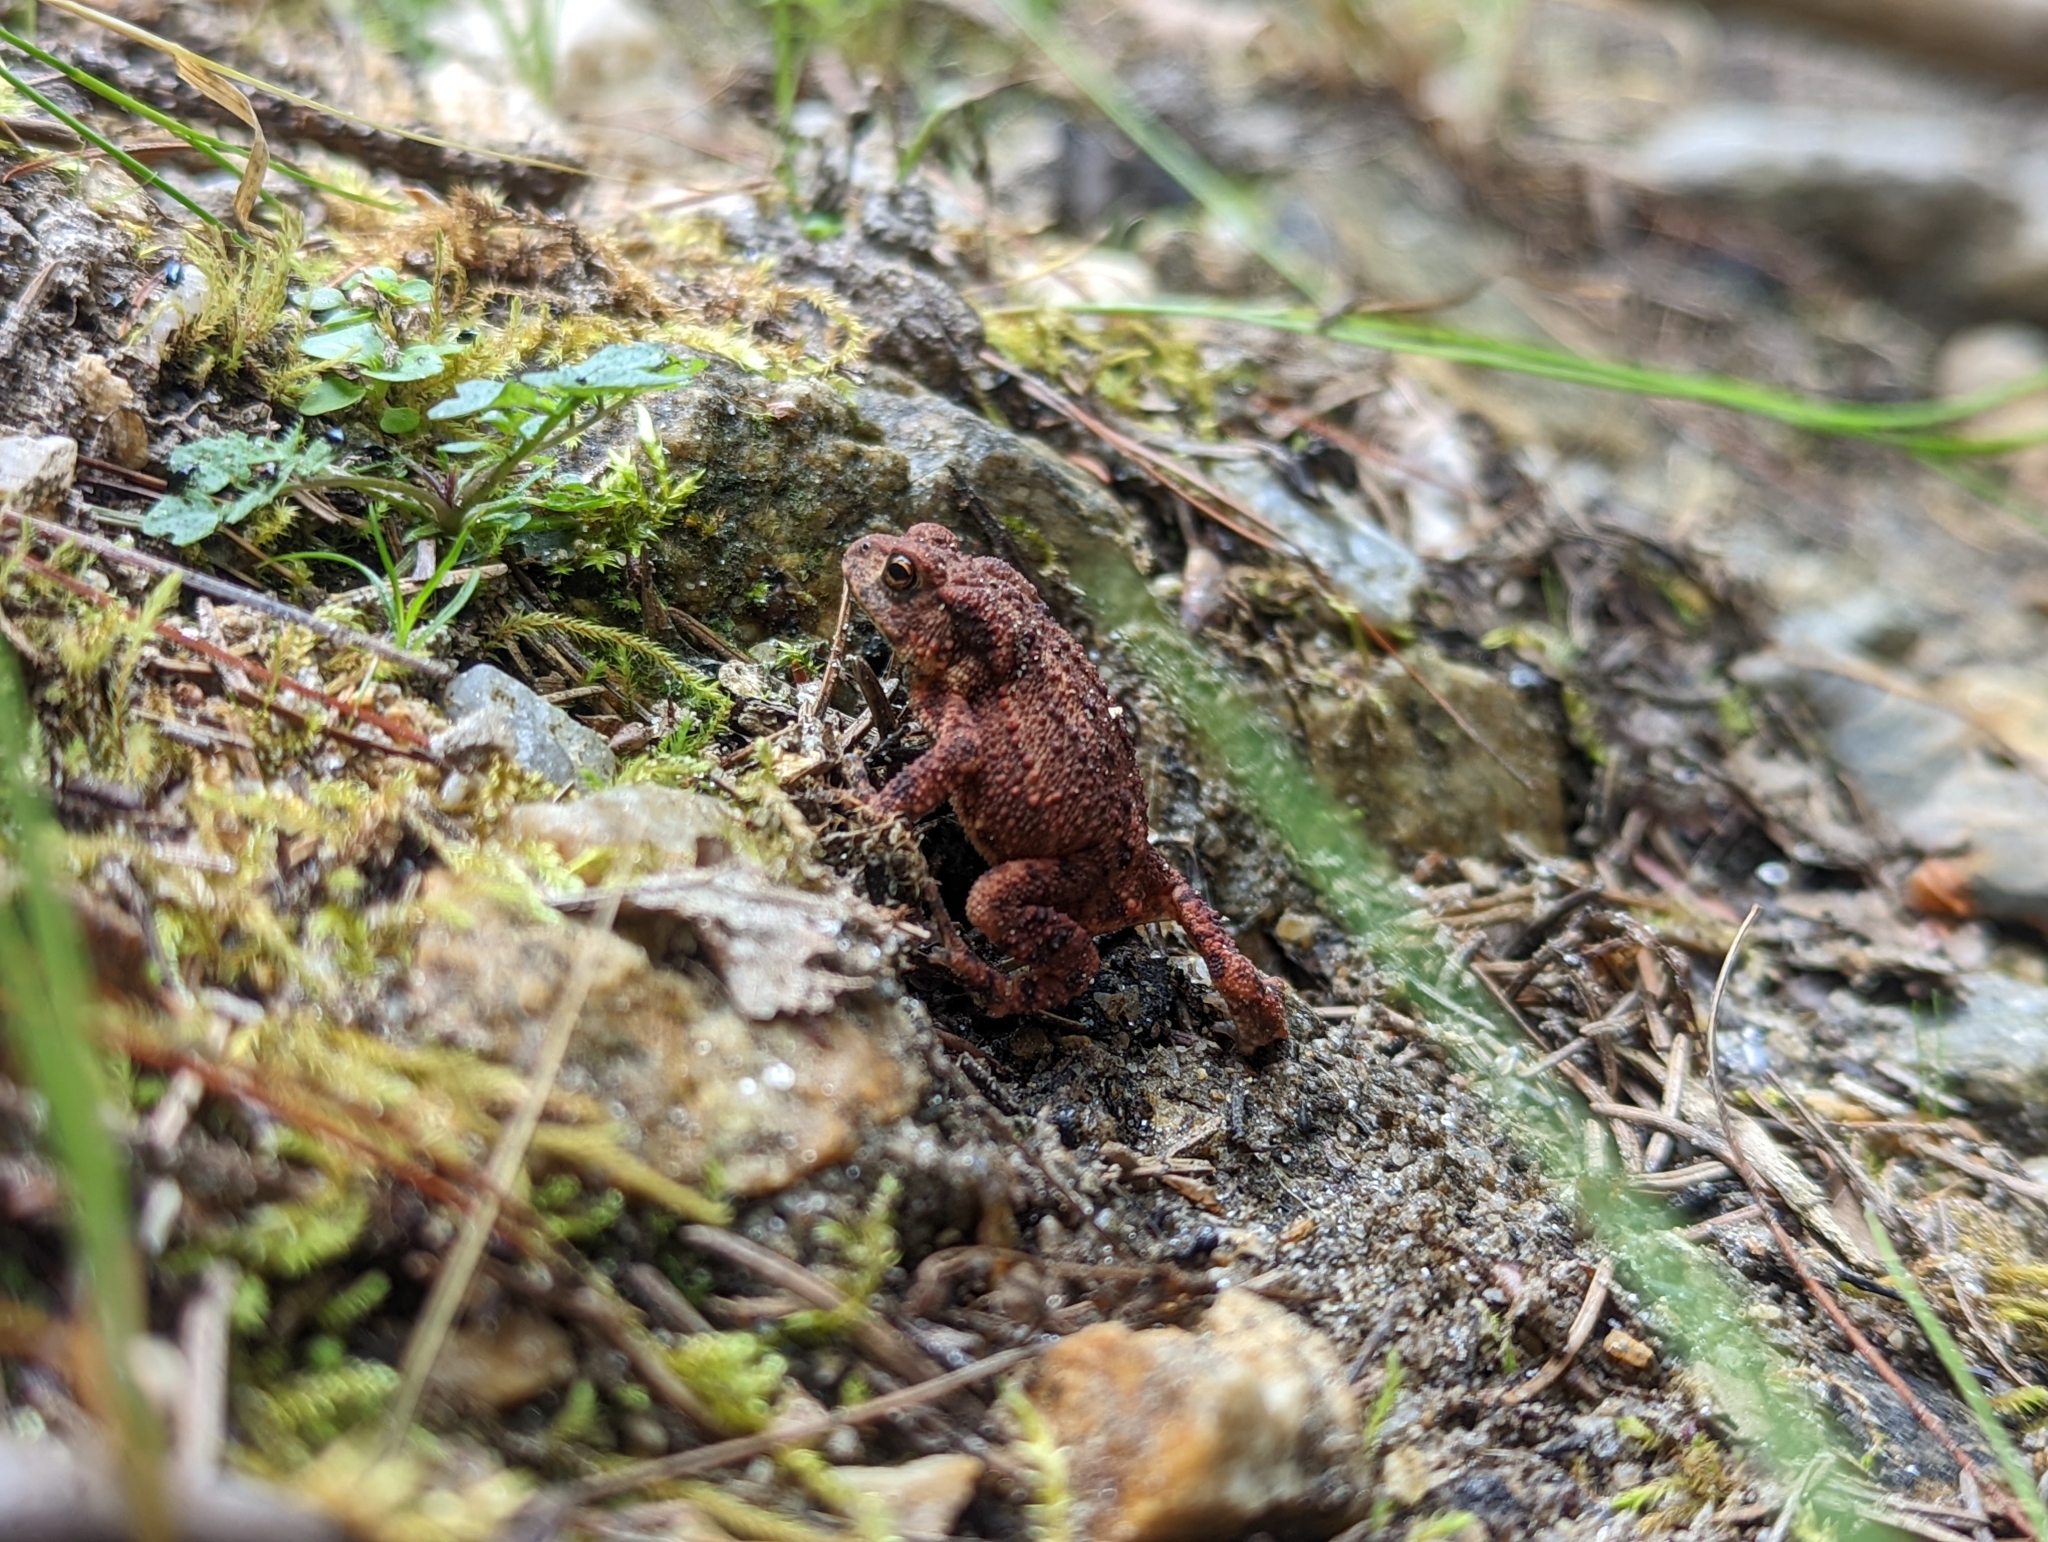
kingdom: Animalia
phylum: Chordata
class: Amphibia
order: Anura
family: Bufonidae
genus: Bufo
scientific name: Bufo bufo
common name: Common toad
